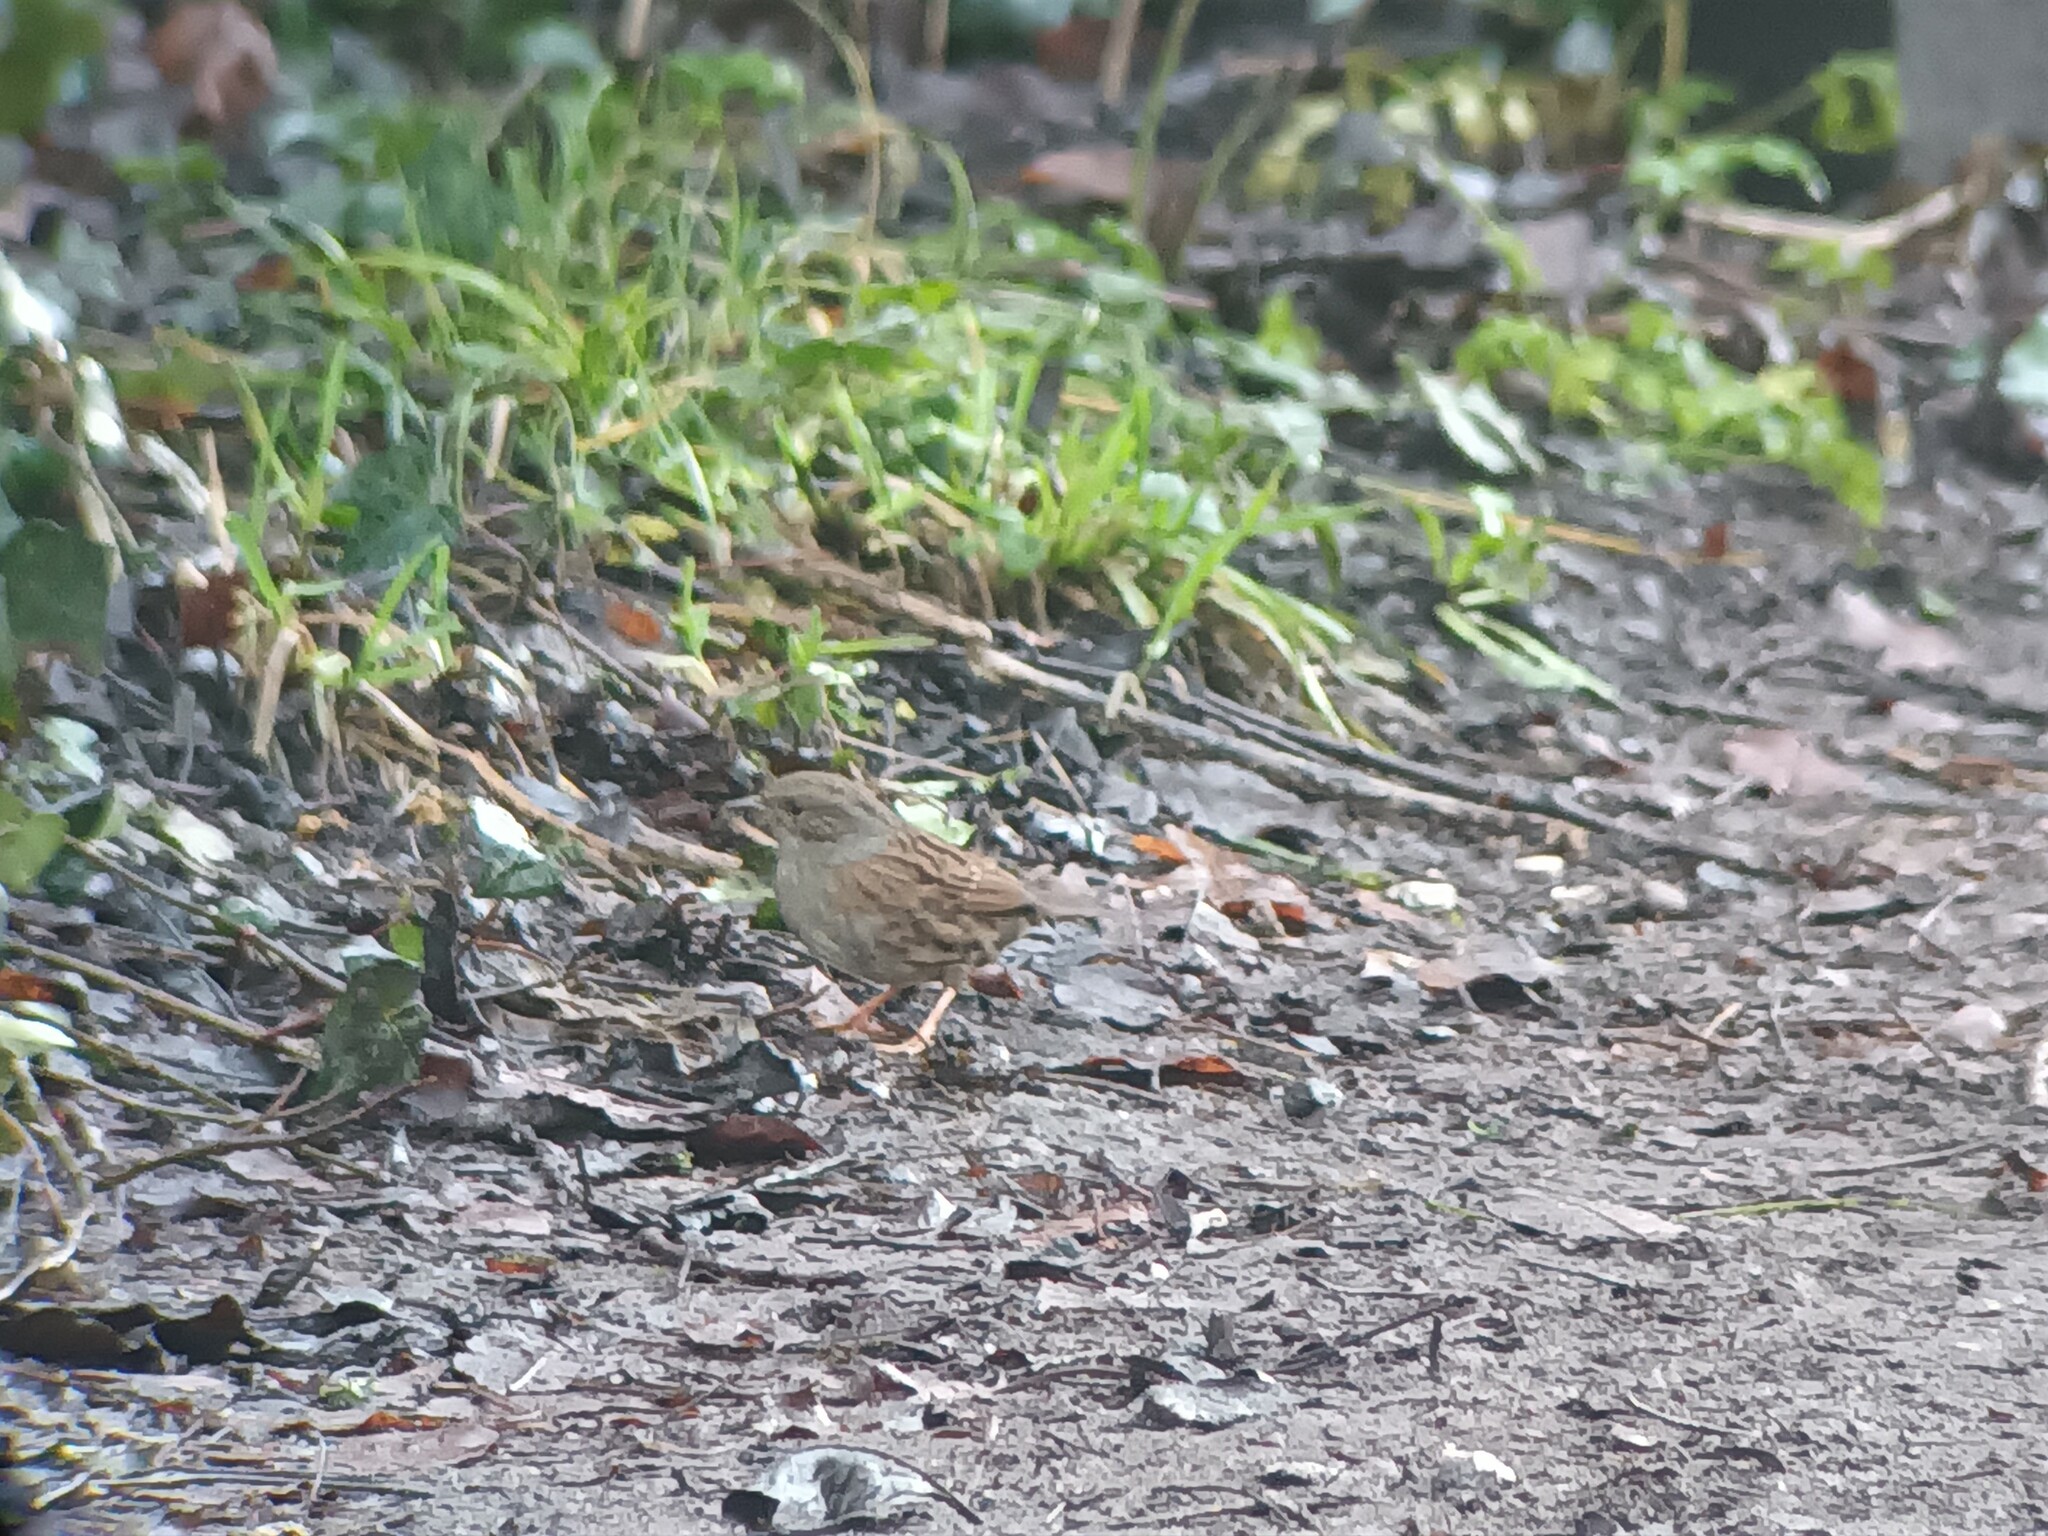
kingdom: Animalia
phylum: Chordata
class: Aves
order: Passeriformes
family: Prunellidae
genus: Prunella
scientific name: Prunella modularis
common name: Dunnock
